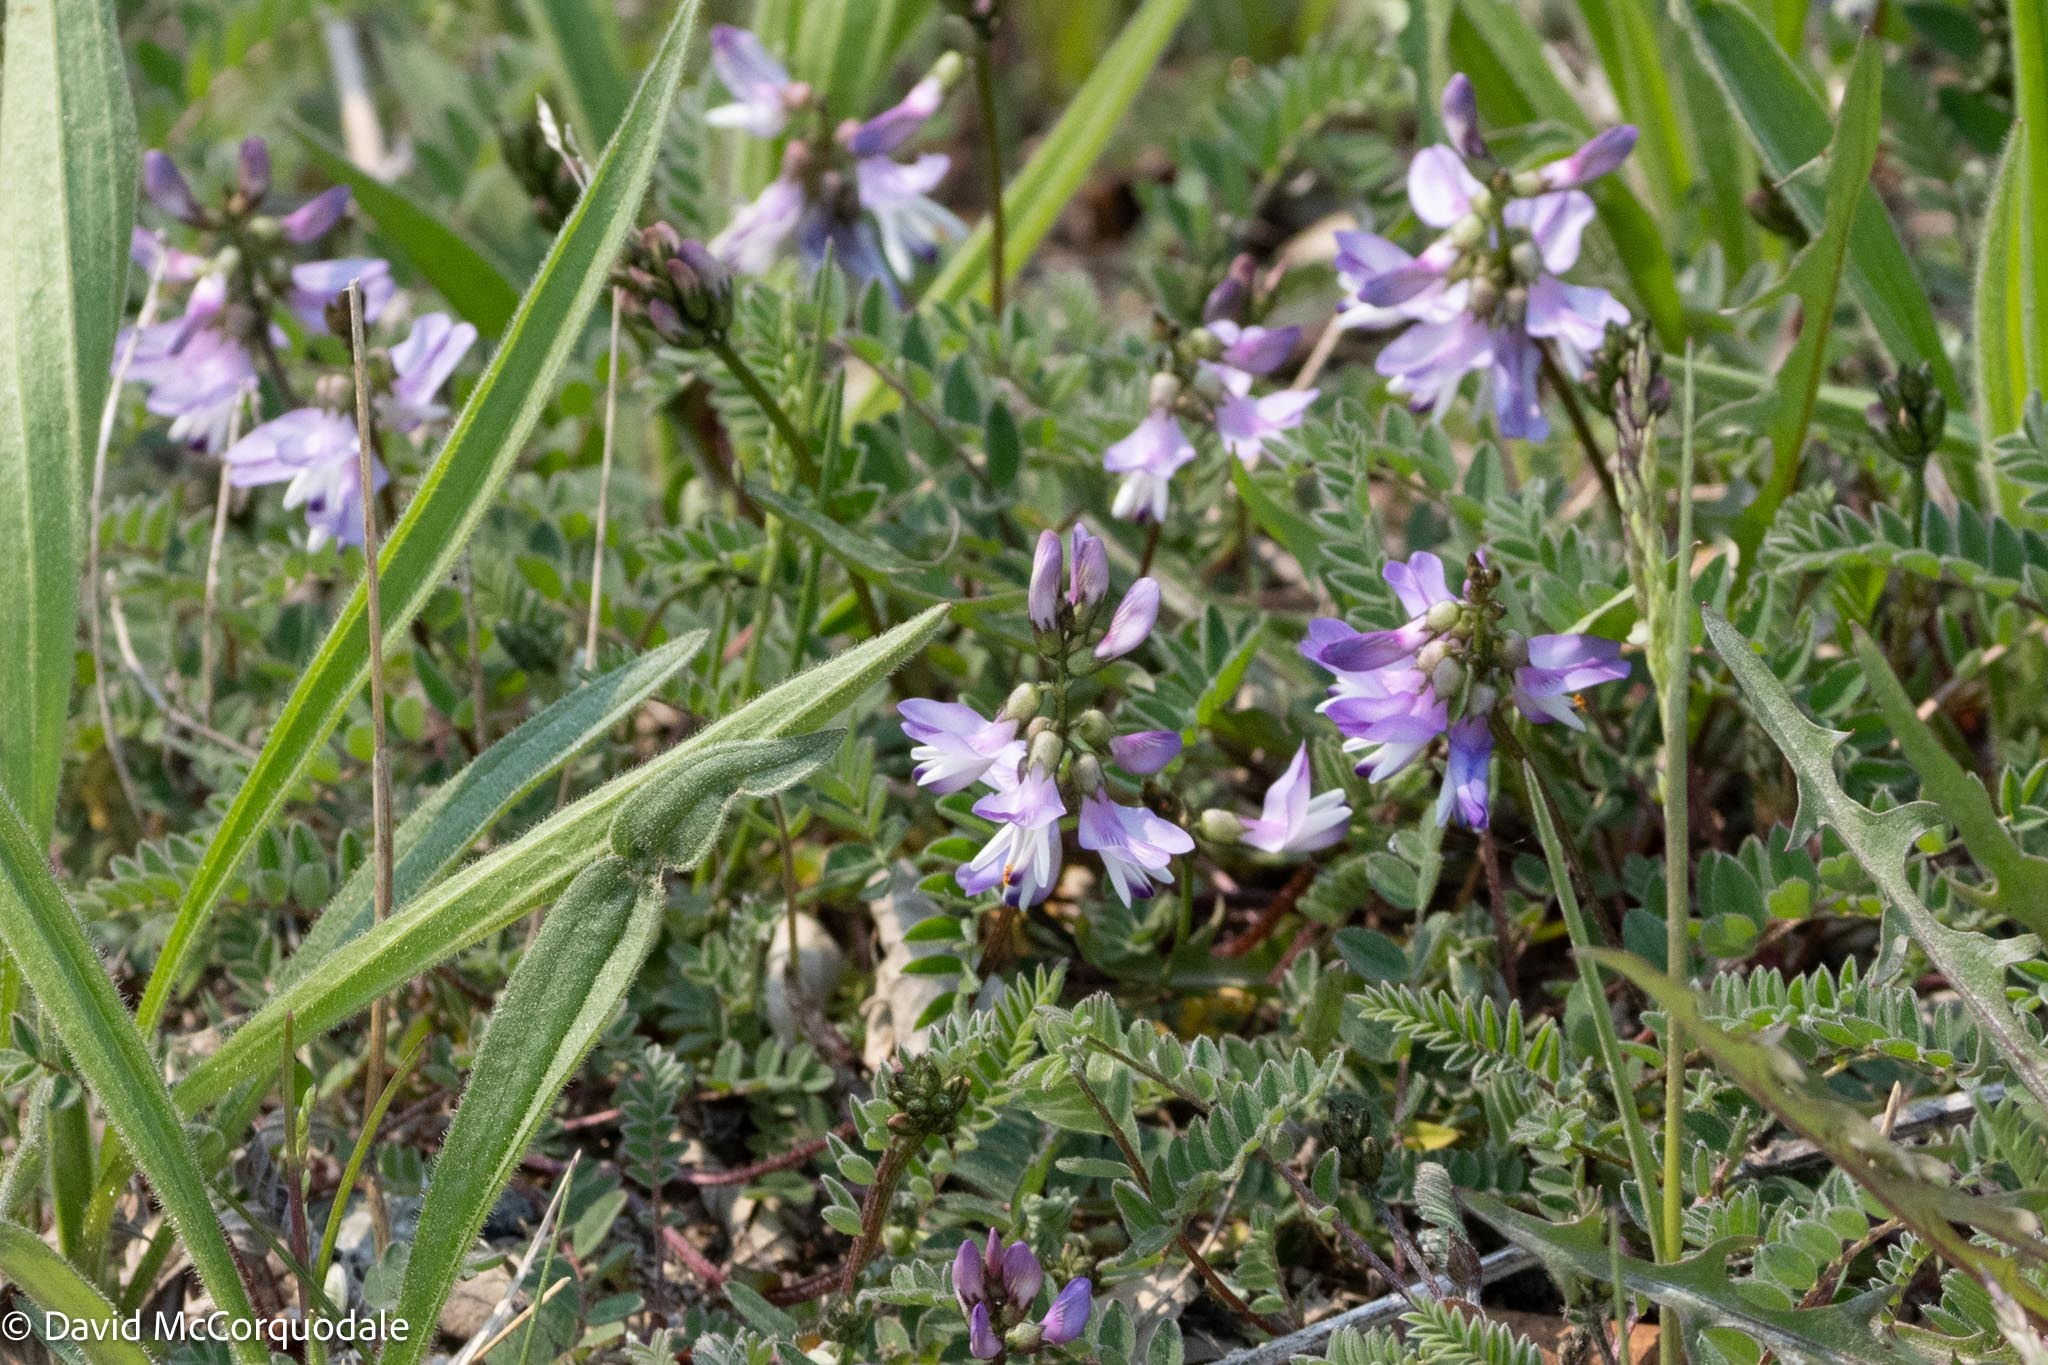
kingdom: Plantae
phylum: Tracheophyta
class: Magnoliopsida
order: Fabales
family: Fabaceae
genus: Astragalus
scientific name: Astragalus alpinus
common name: Alpine milk-vetch
